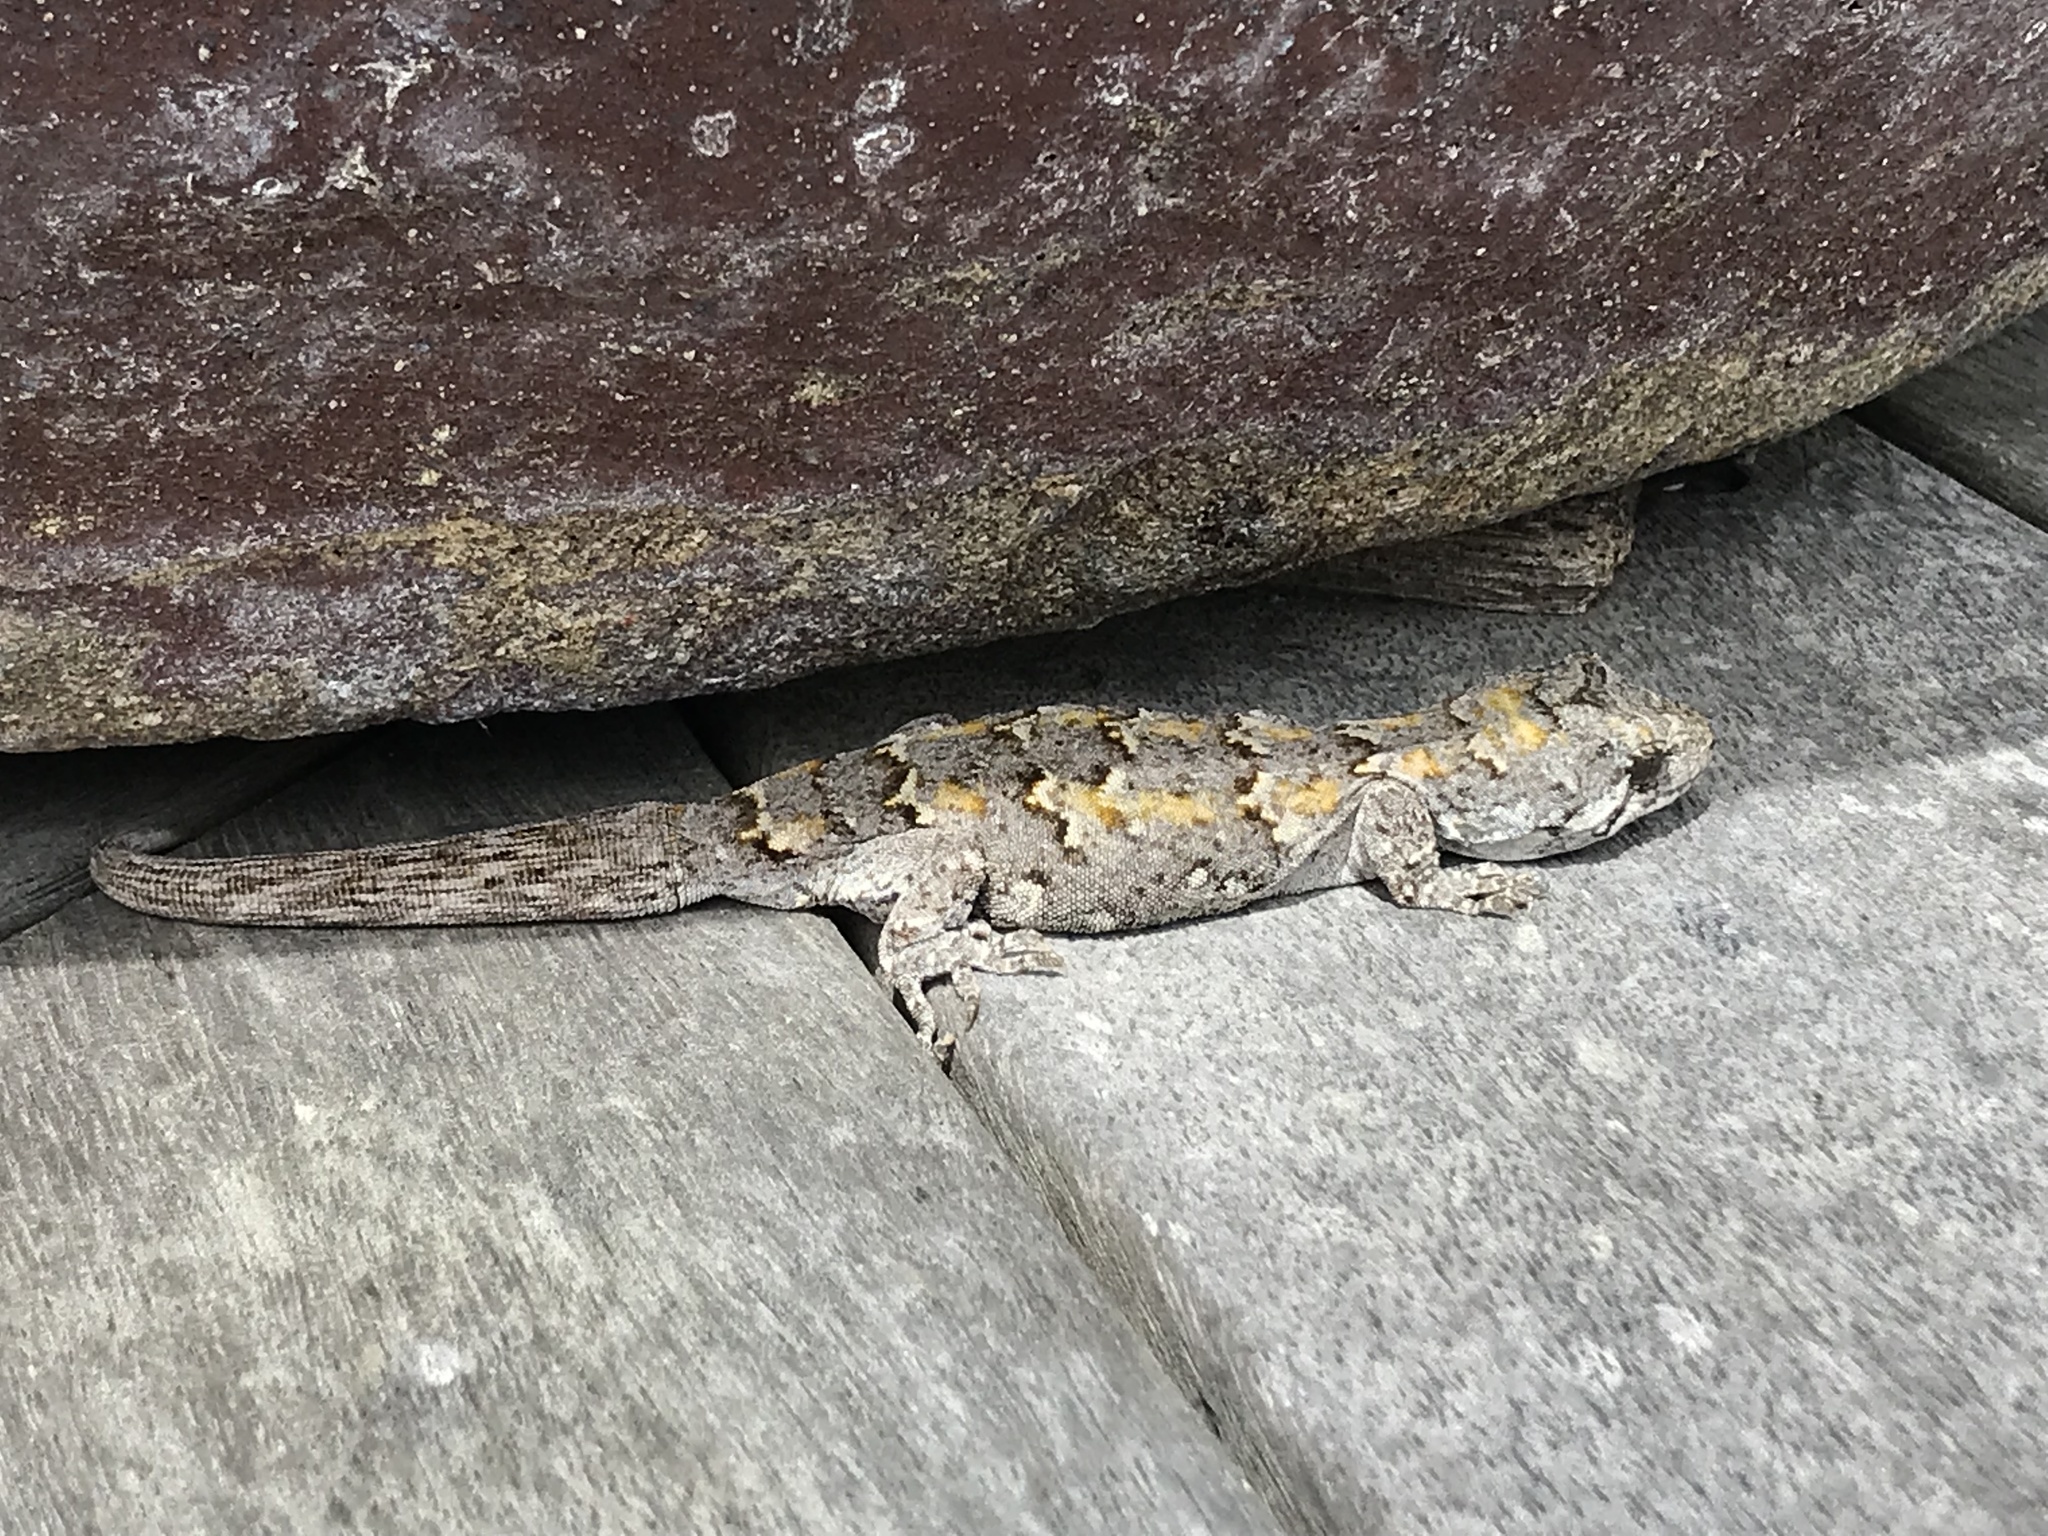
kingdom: Animalia
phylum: Chordata
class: Squamata
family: Diplodactylidae
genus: Mokopirirakau
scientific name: Mokopirirakau
